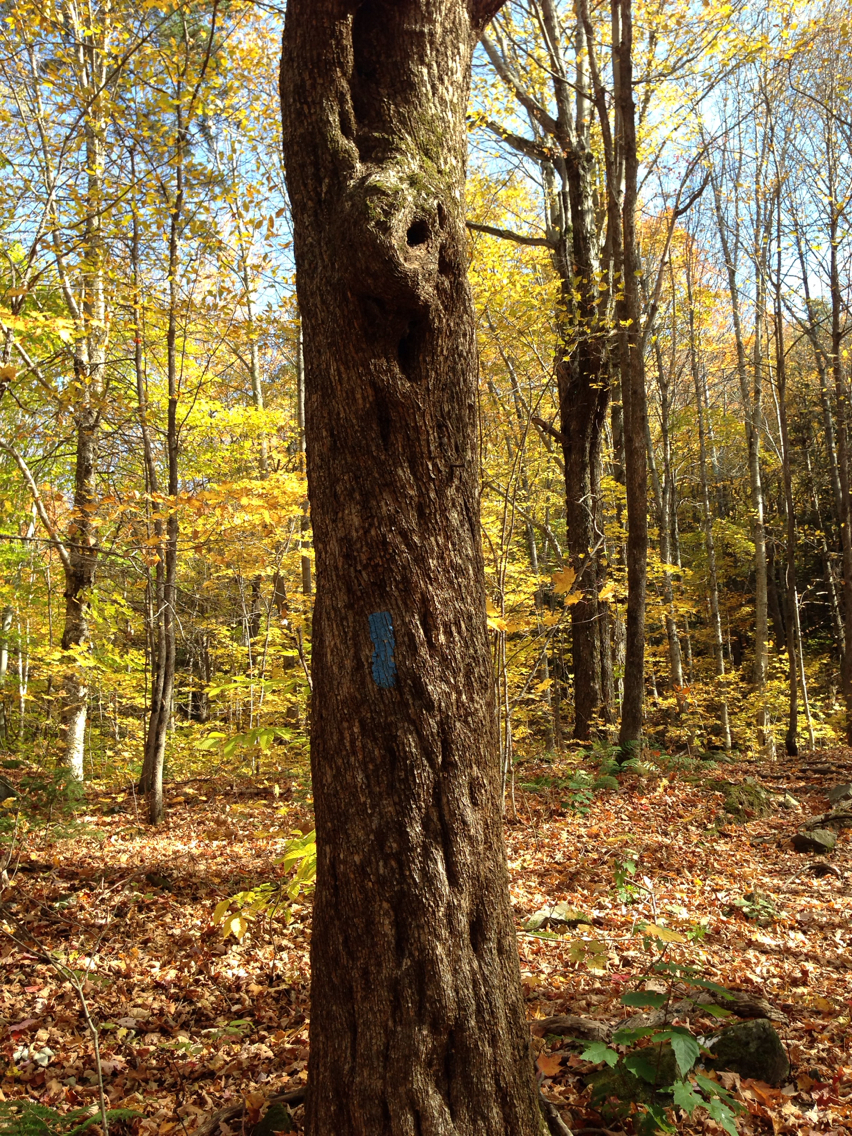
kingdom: Plantae
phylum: Tracheophyta
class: Magnoliopsida
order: Fagales
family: Betulaceae
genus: Ostrya
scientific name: Ostrya virginiana
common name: Ironwood
